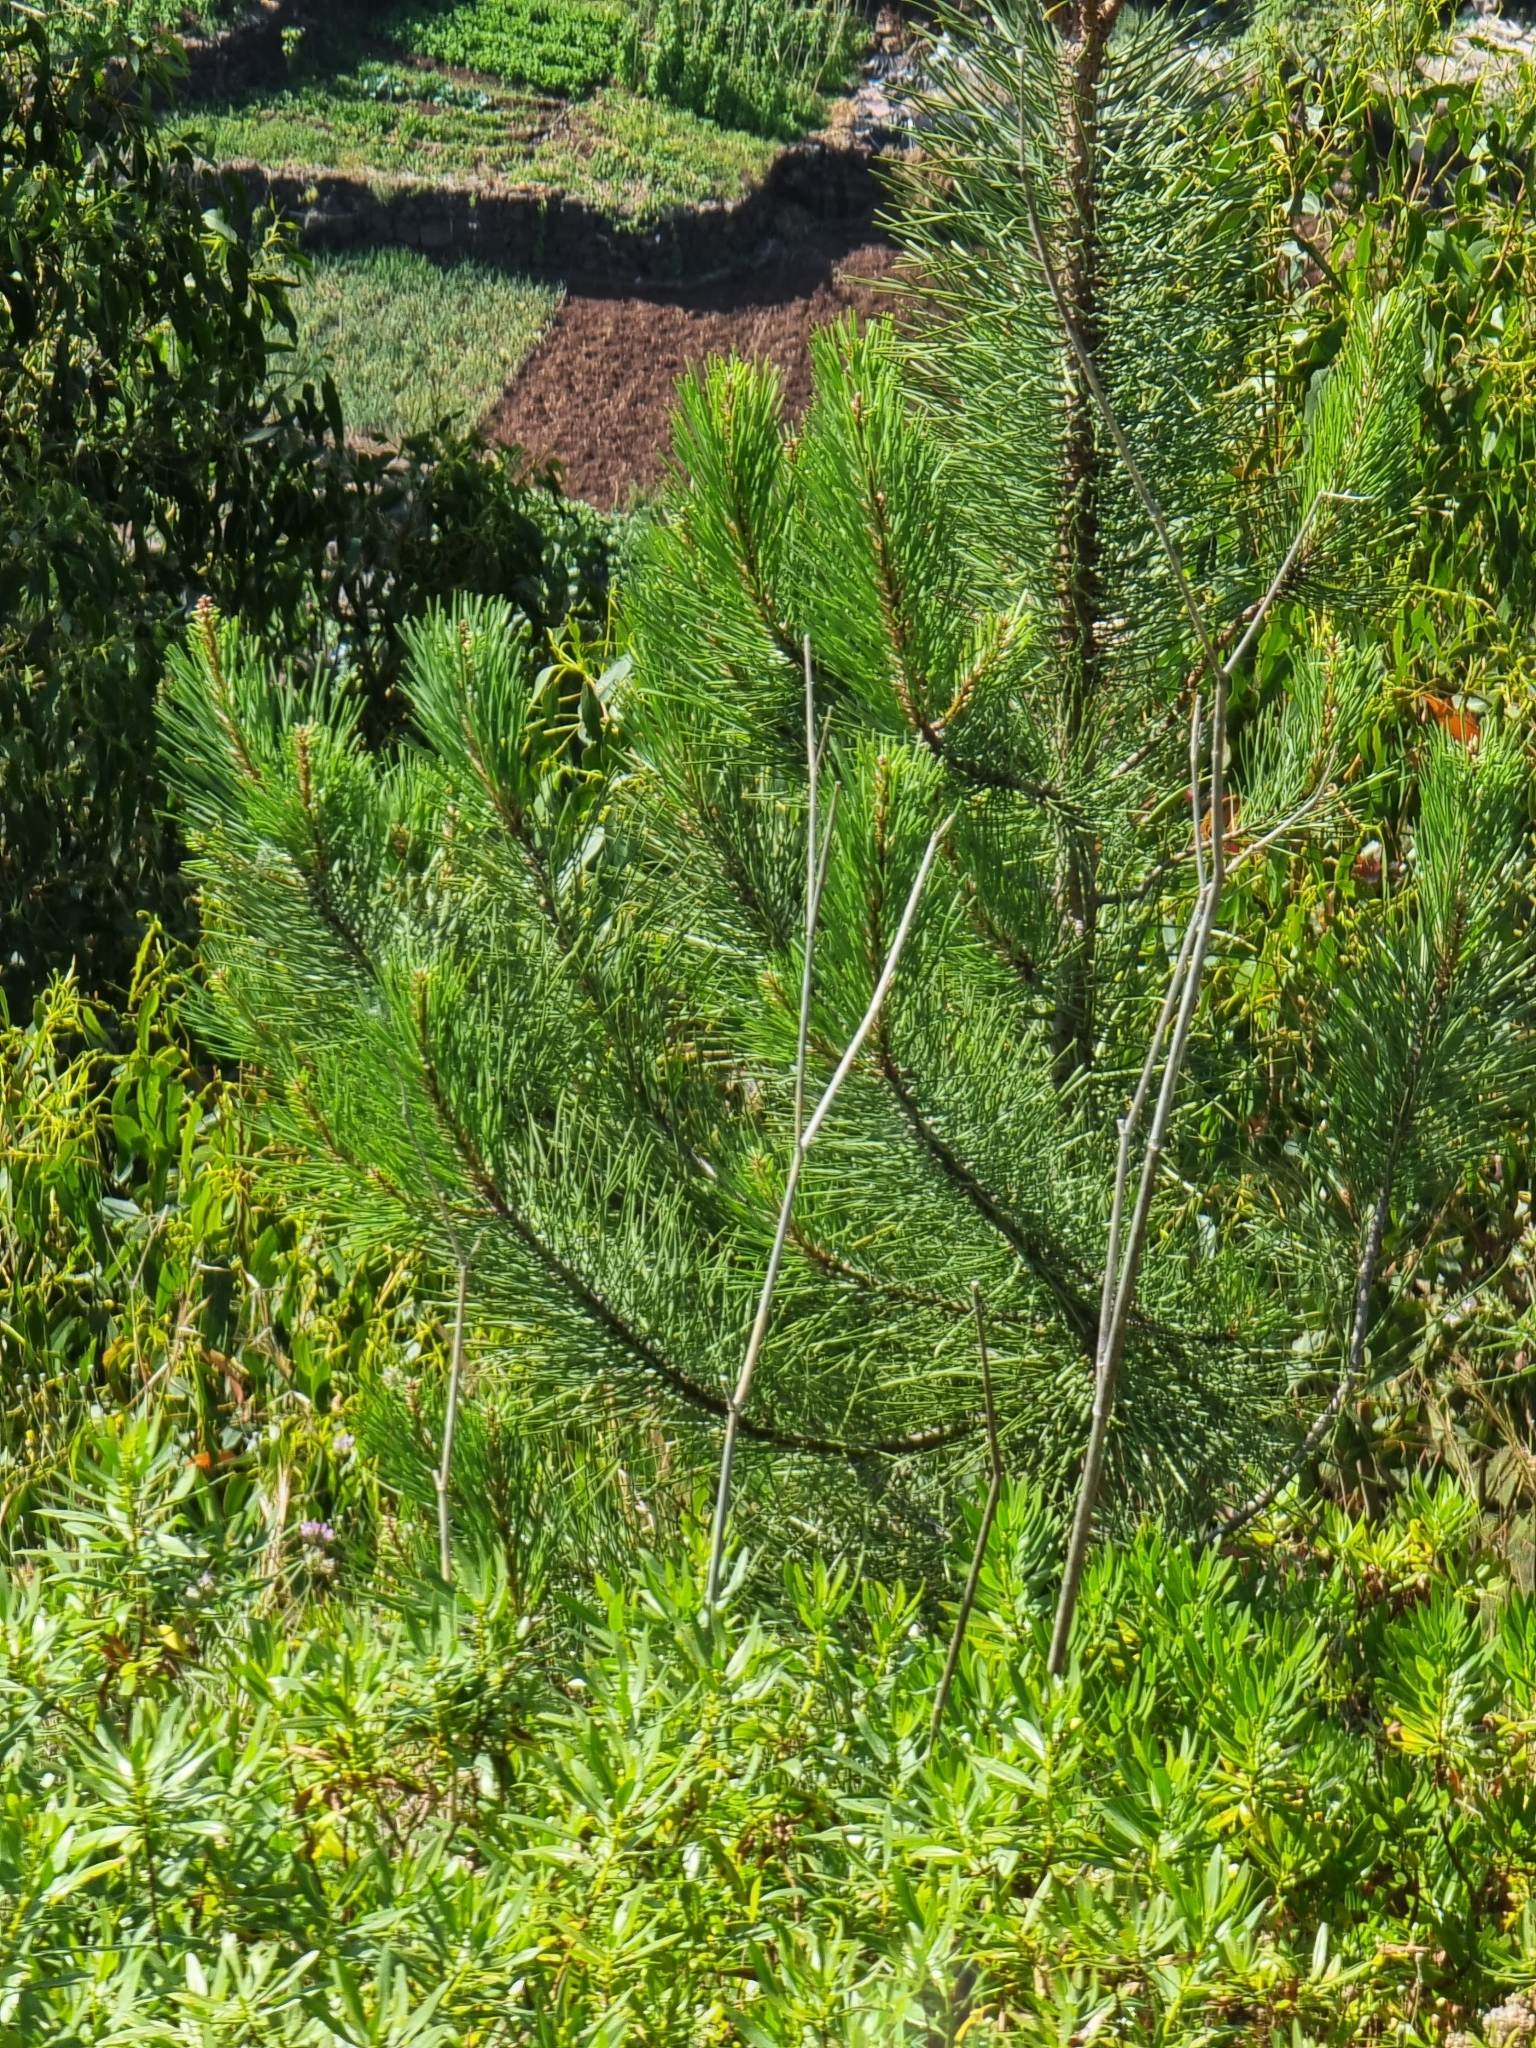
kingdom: Plantae
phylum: Tracheophyta
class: Pinopsida
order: Pinales
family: Pinaceae
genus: Pinus
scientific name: Pinus pinaster
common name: Maritime pine
